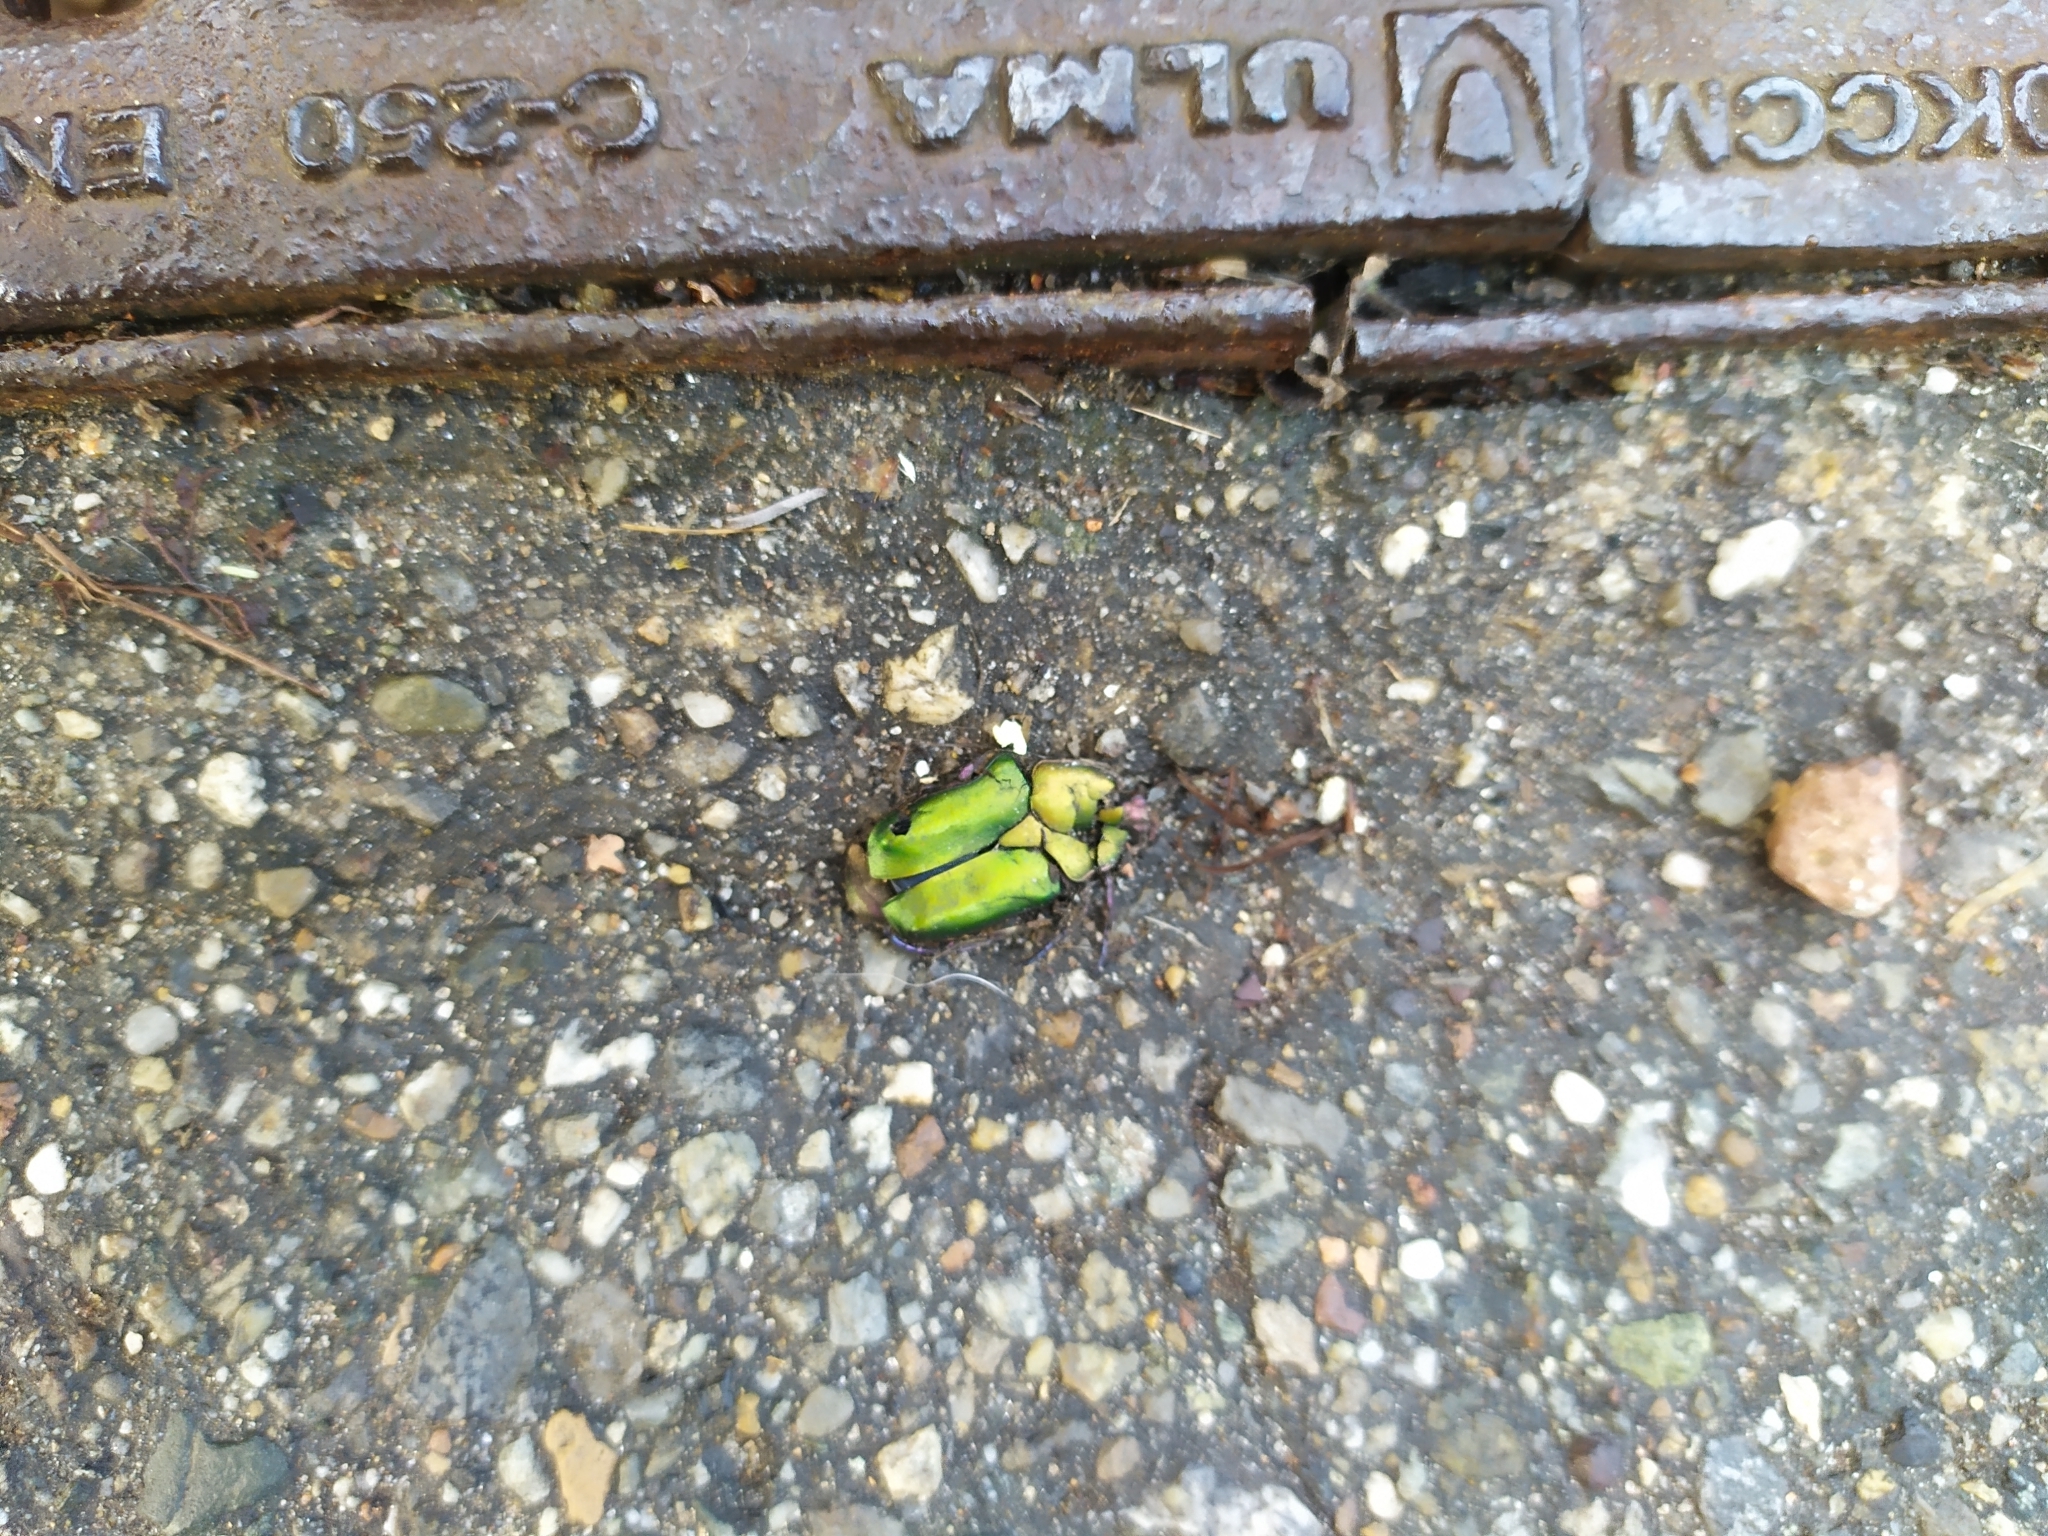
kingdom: Animalia
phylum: Arthropoda
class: Insecta
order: Coleoptera
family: Scarabaeidae
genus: Protaetia
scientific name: Protaetia cuprea
